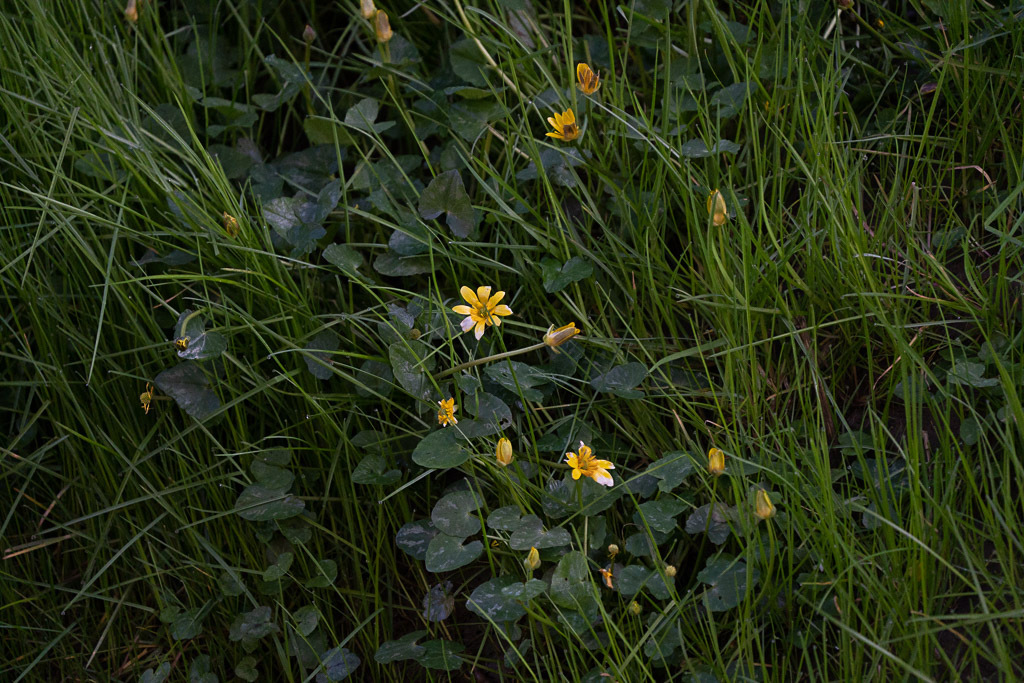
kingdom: Plantae
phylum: Tracheophyta
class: Magnoliopsida
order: Ranunculales
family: Ranunculaceae
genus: Ficaria
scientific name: Ficaria verna
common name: Lesser celandine
